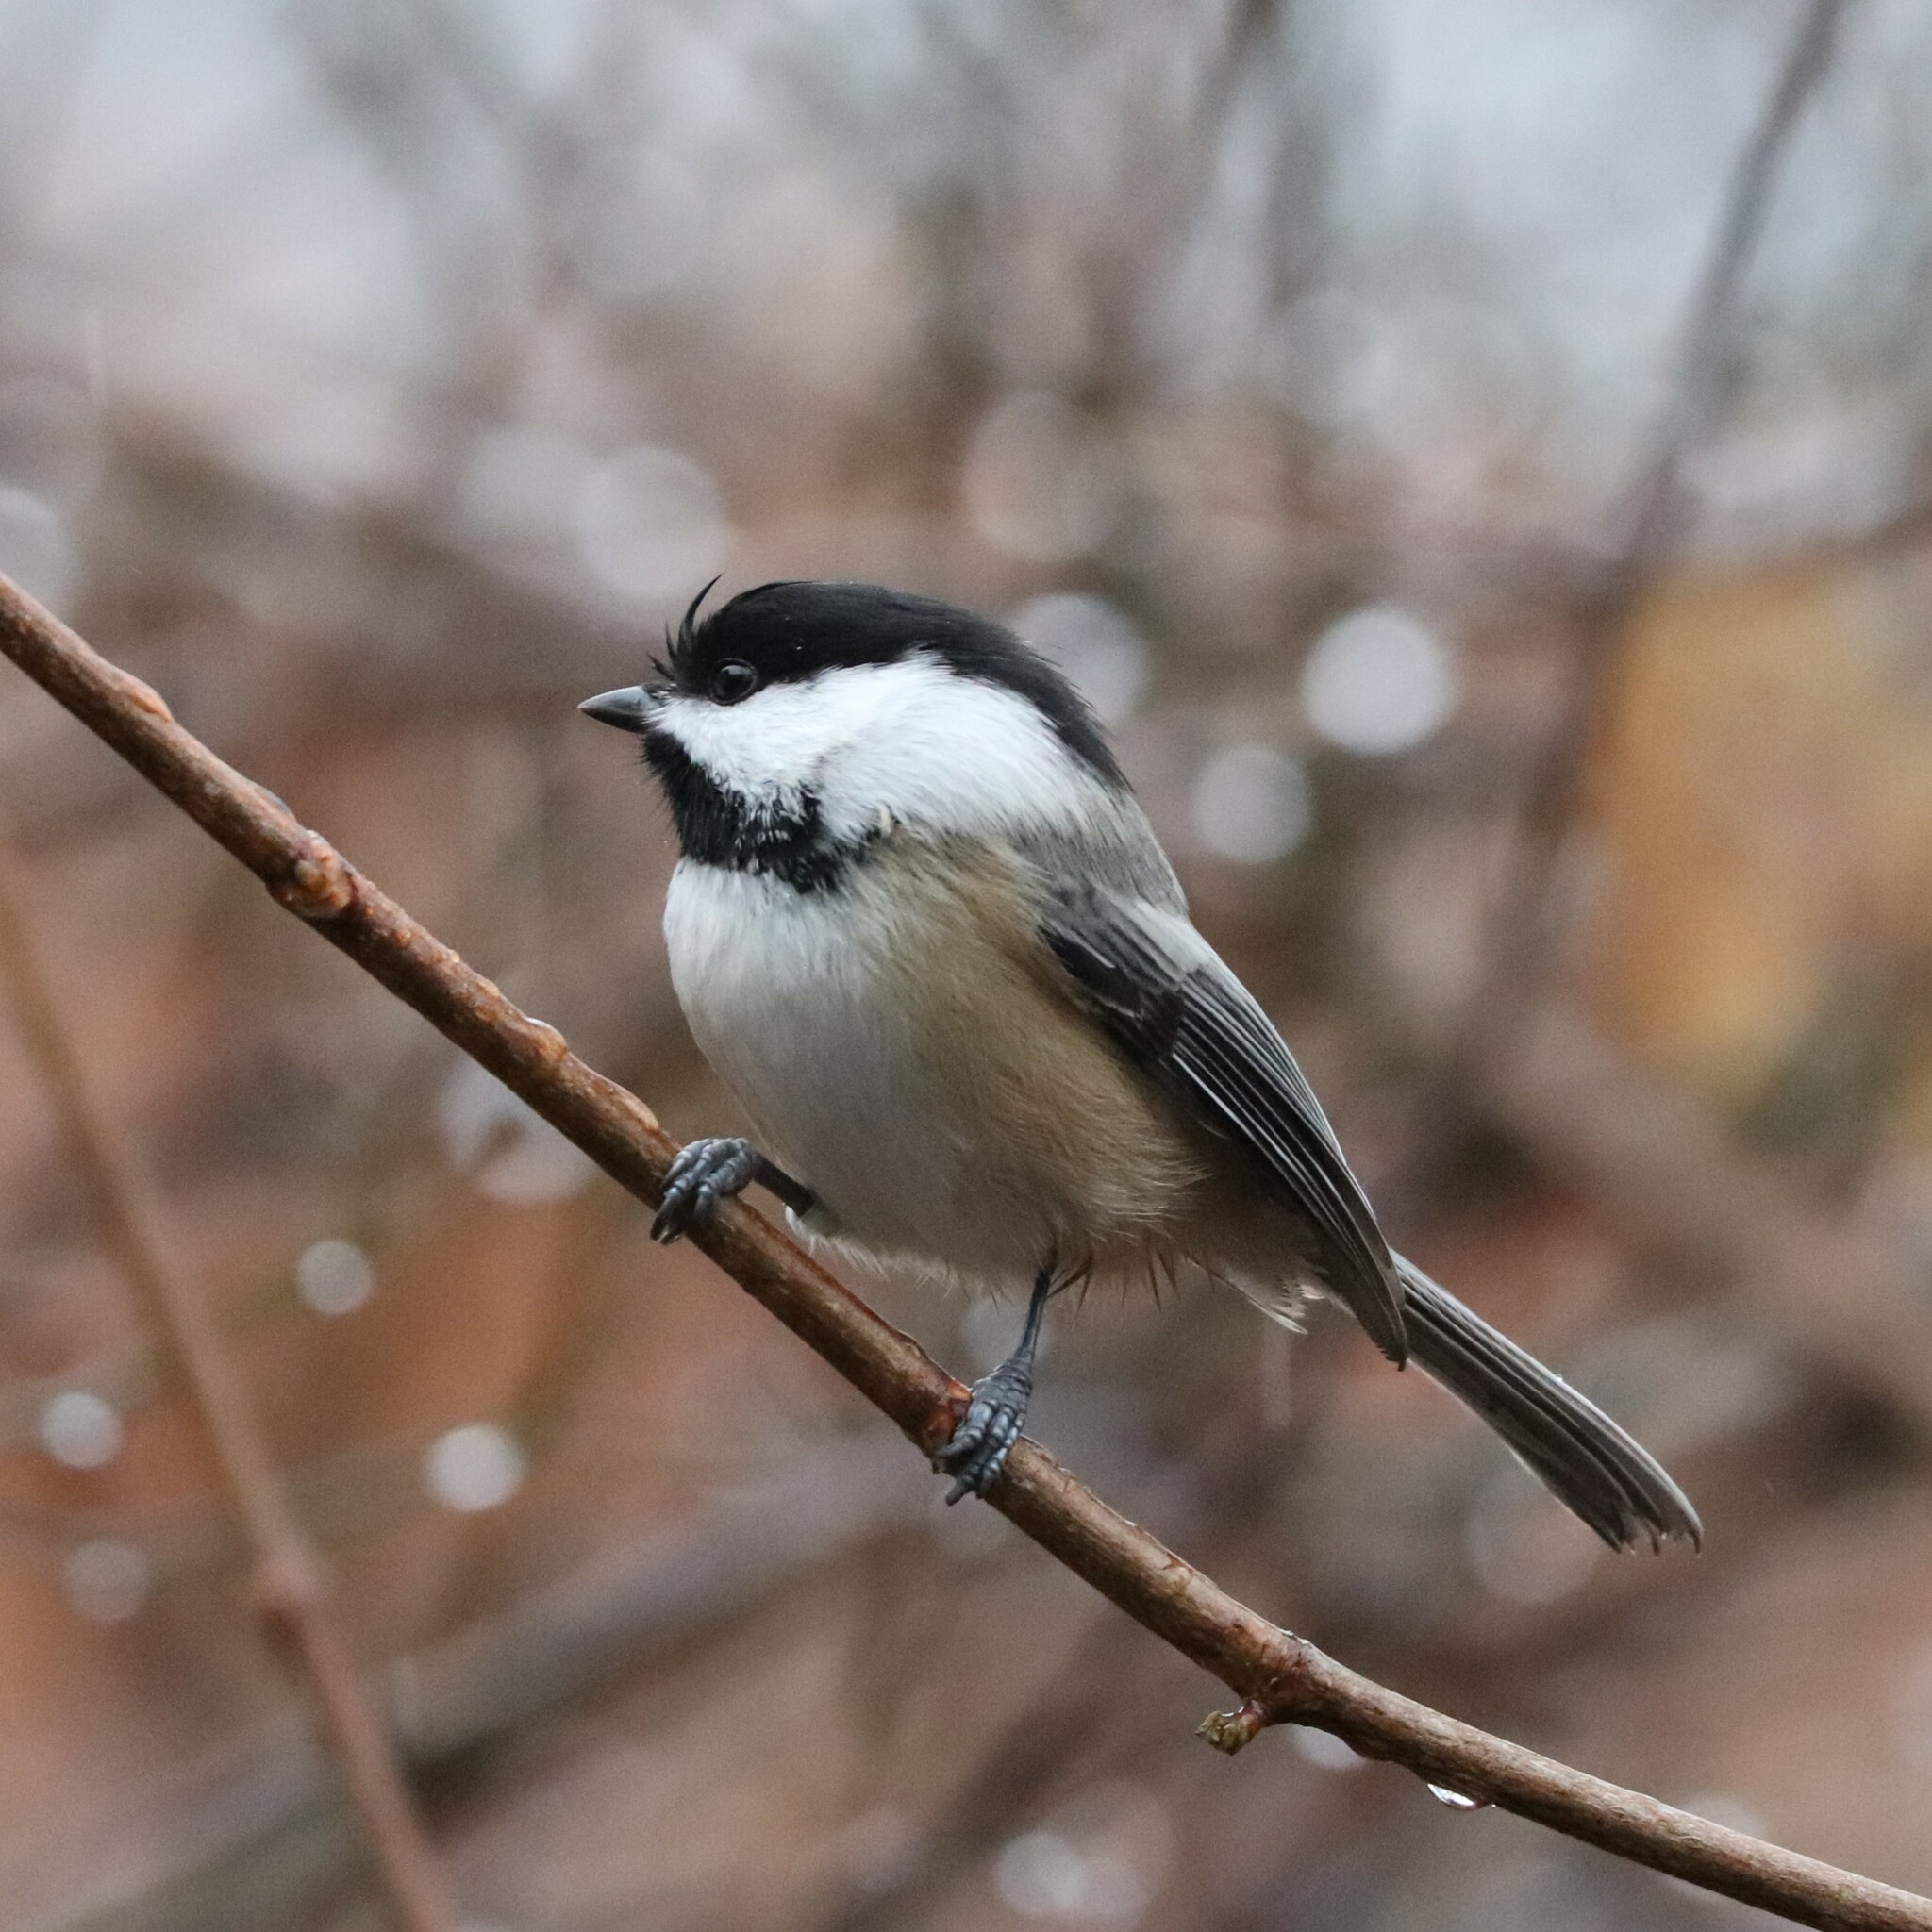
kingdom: Animalia
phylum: Chordata
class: Aves
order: Passeriformes
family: Paridae
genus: Poecile
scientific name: Poecile atricapillus
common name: Black-capped chickadee
